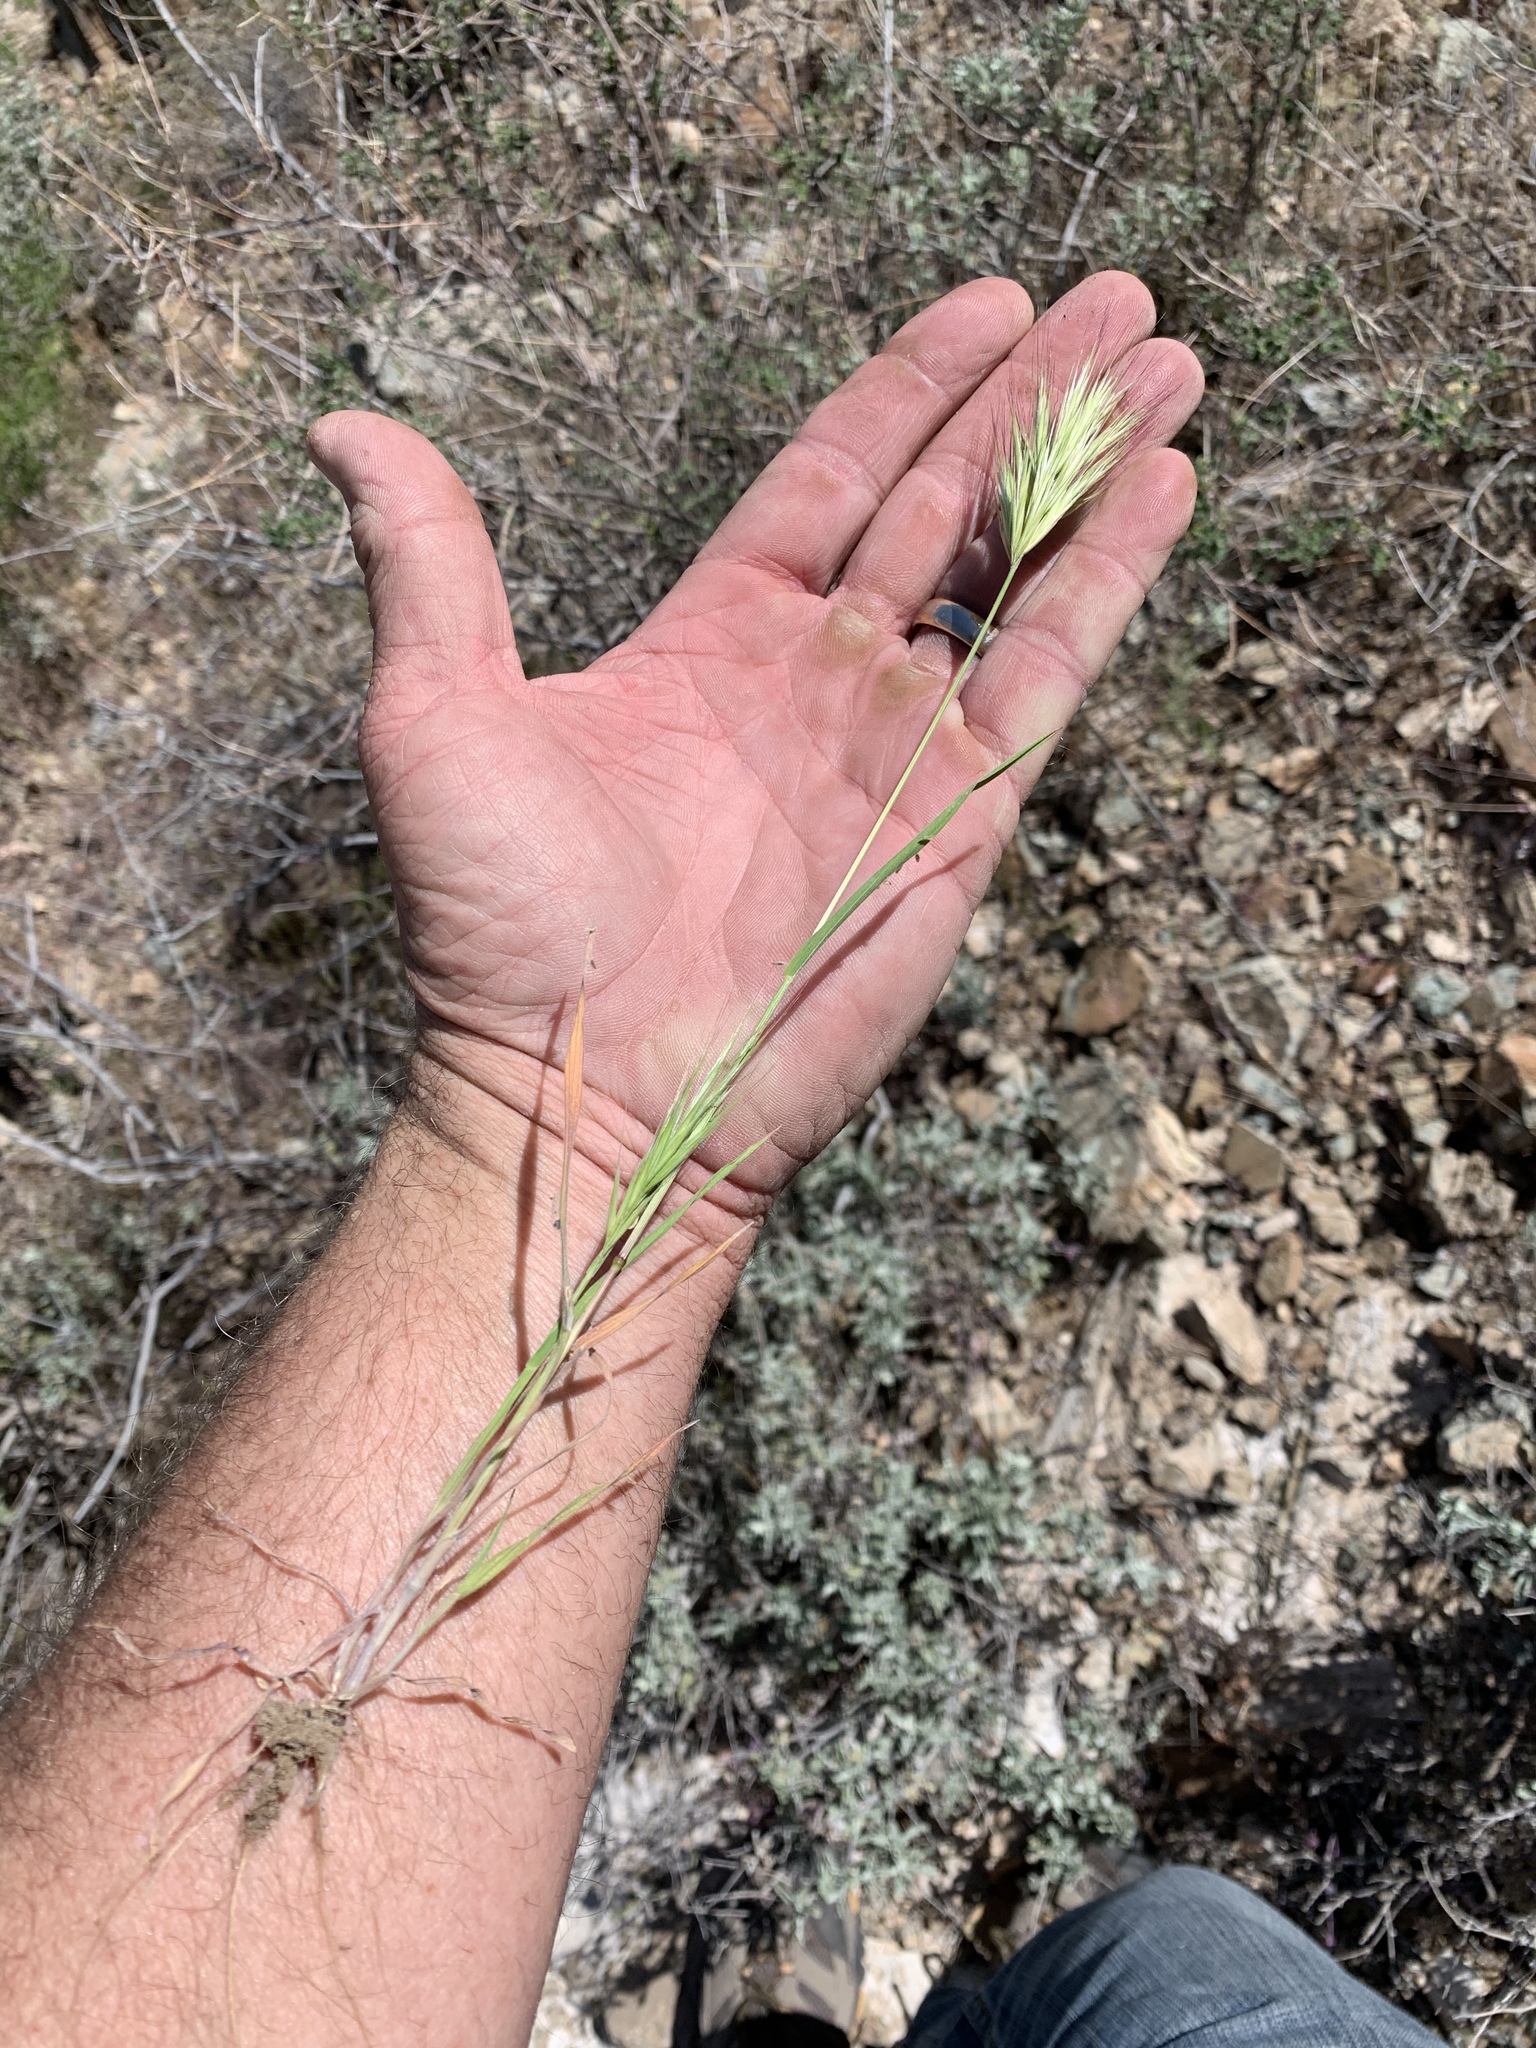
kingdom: Plantae
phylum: Tracheophyta
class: Liliopsida
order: Poales
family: Poaceae
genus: Bromus
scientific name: Bromus rubens
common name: Red brome
